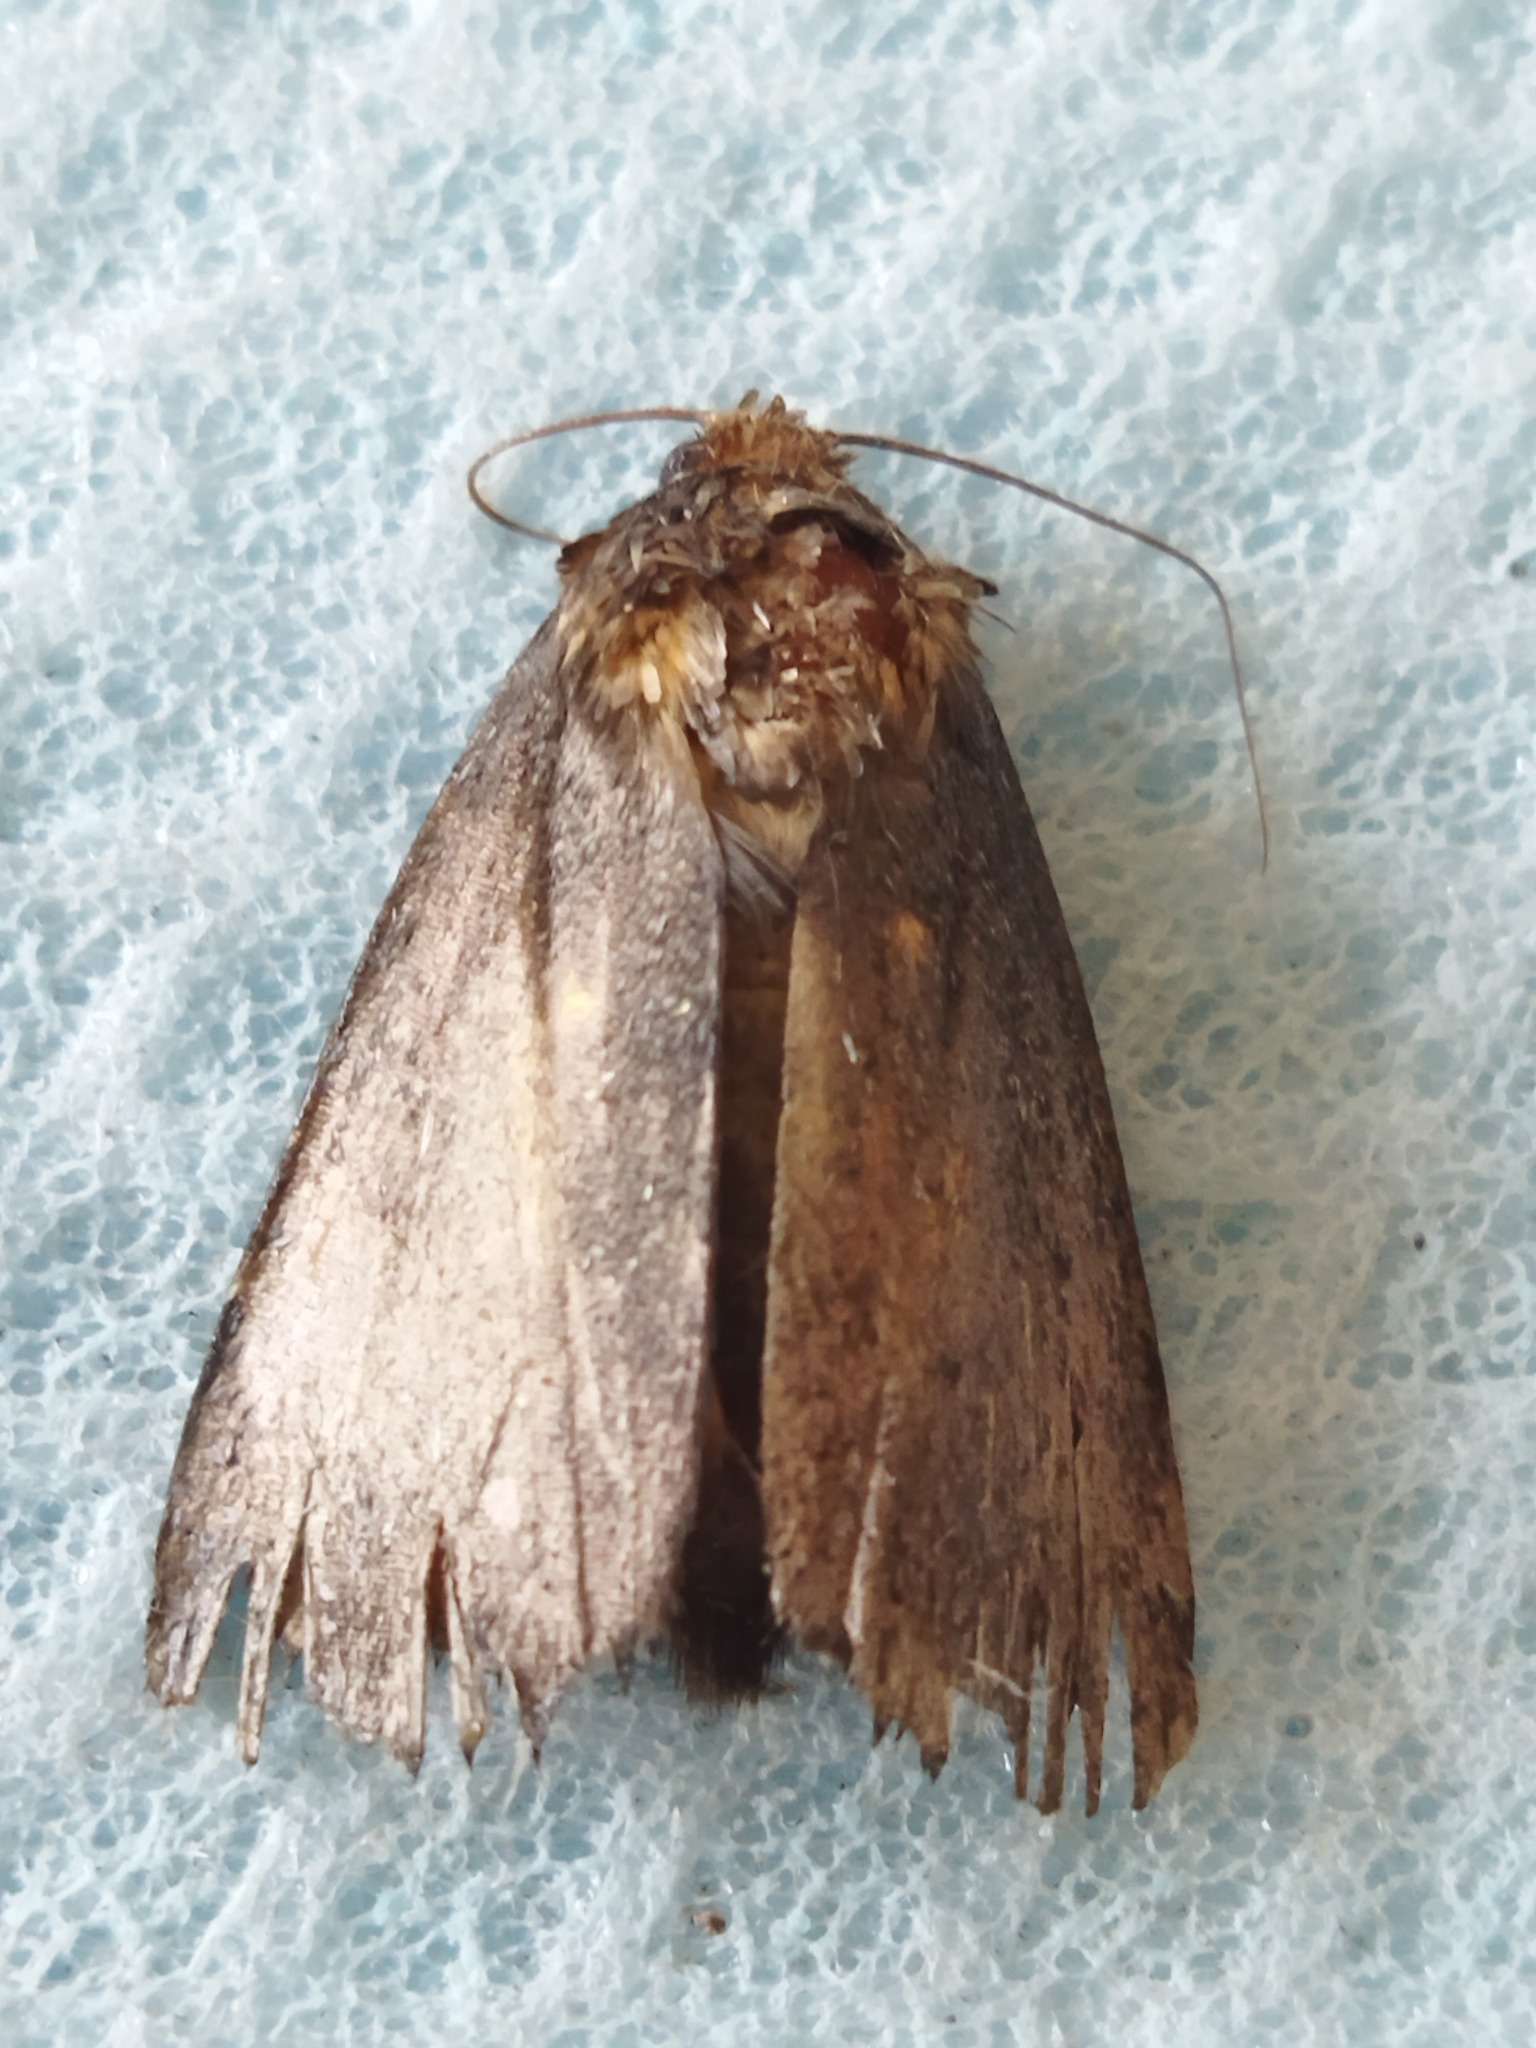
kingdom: Animalia
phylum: Arthropoda
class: Insecta
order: Lepidoptera
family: Noctuidae
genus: Amphipyra
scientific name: Amphipyra
